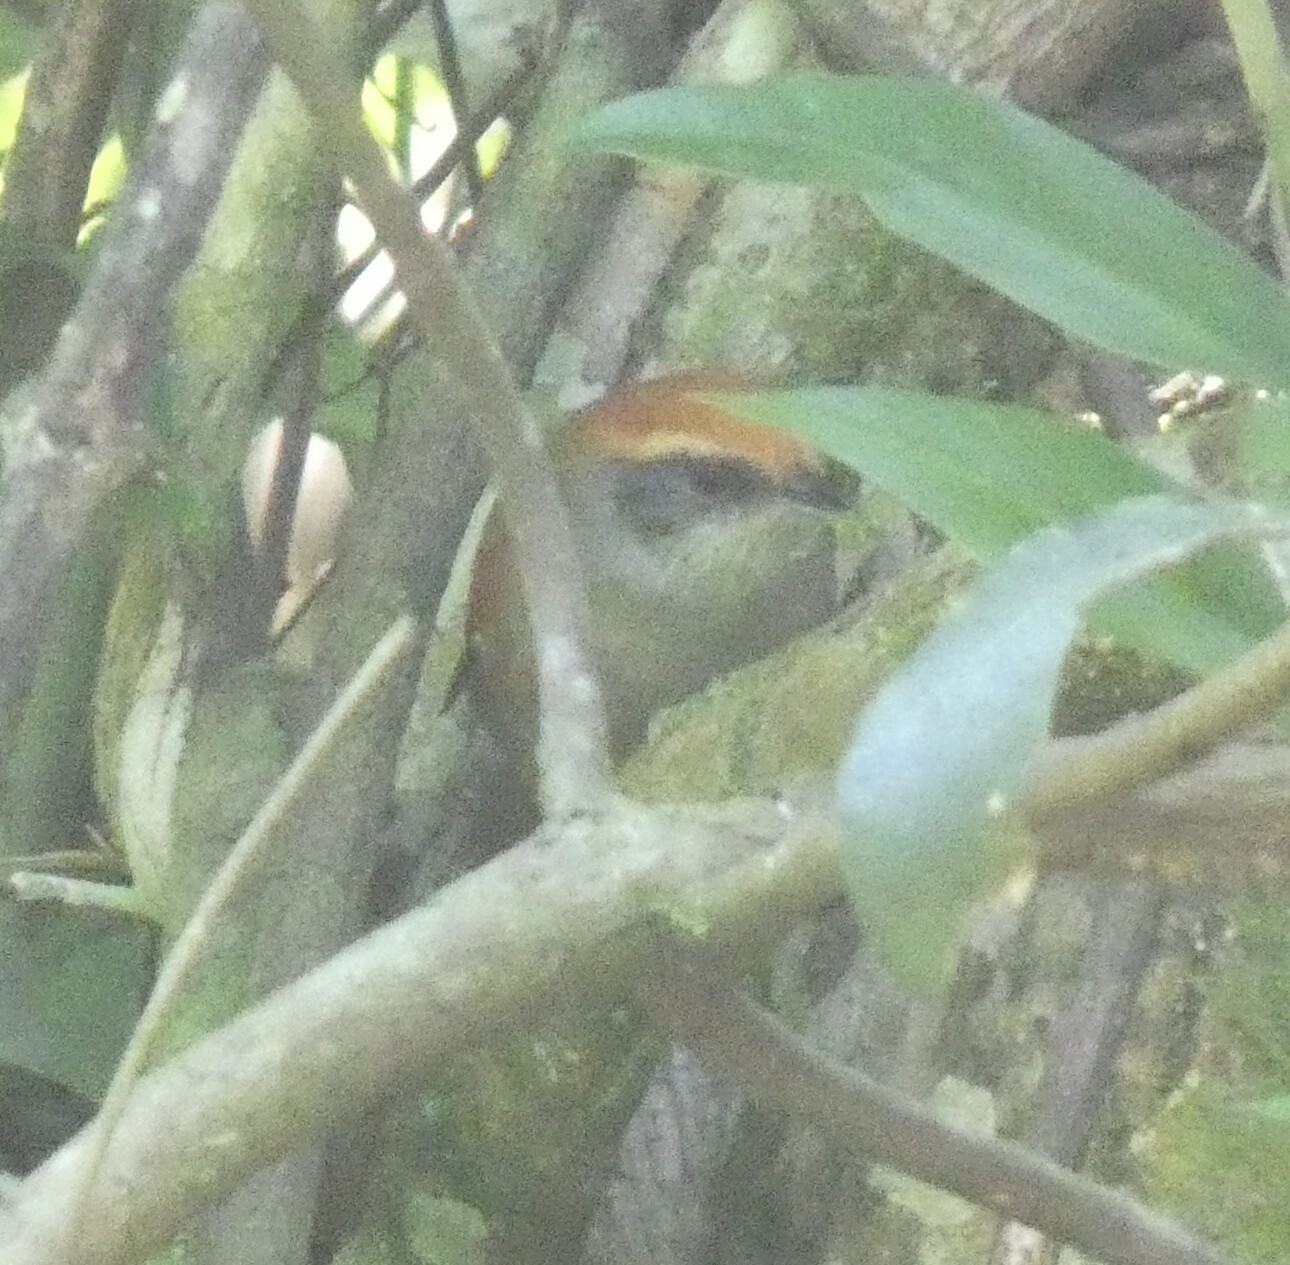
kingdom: Animalia
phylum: Chordata
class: Aves
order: Passeriformes
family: Furnariidae
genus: Synallaxis
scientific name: Synallaxis ruficapilla
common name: Rufous-capped spinetail
